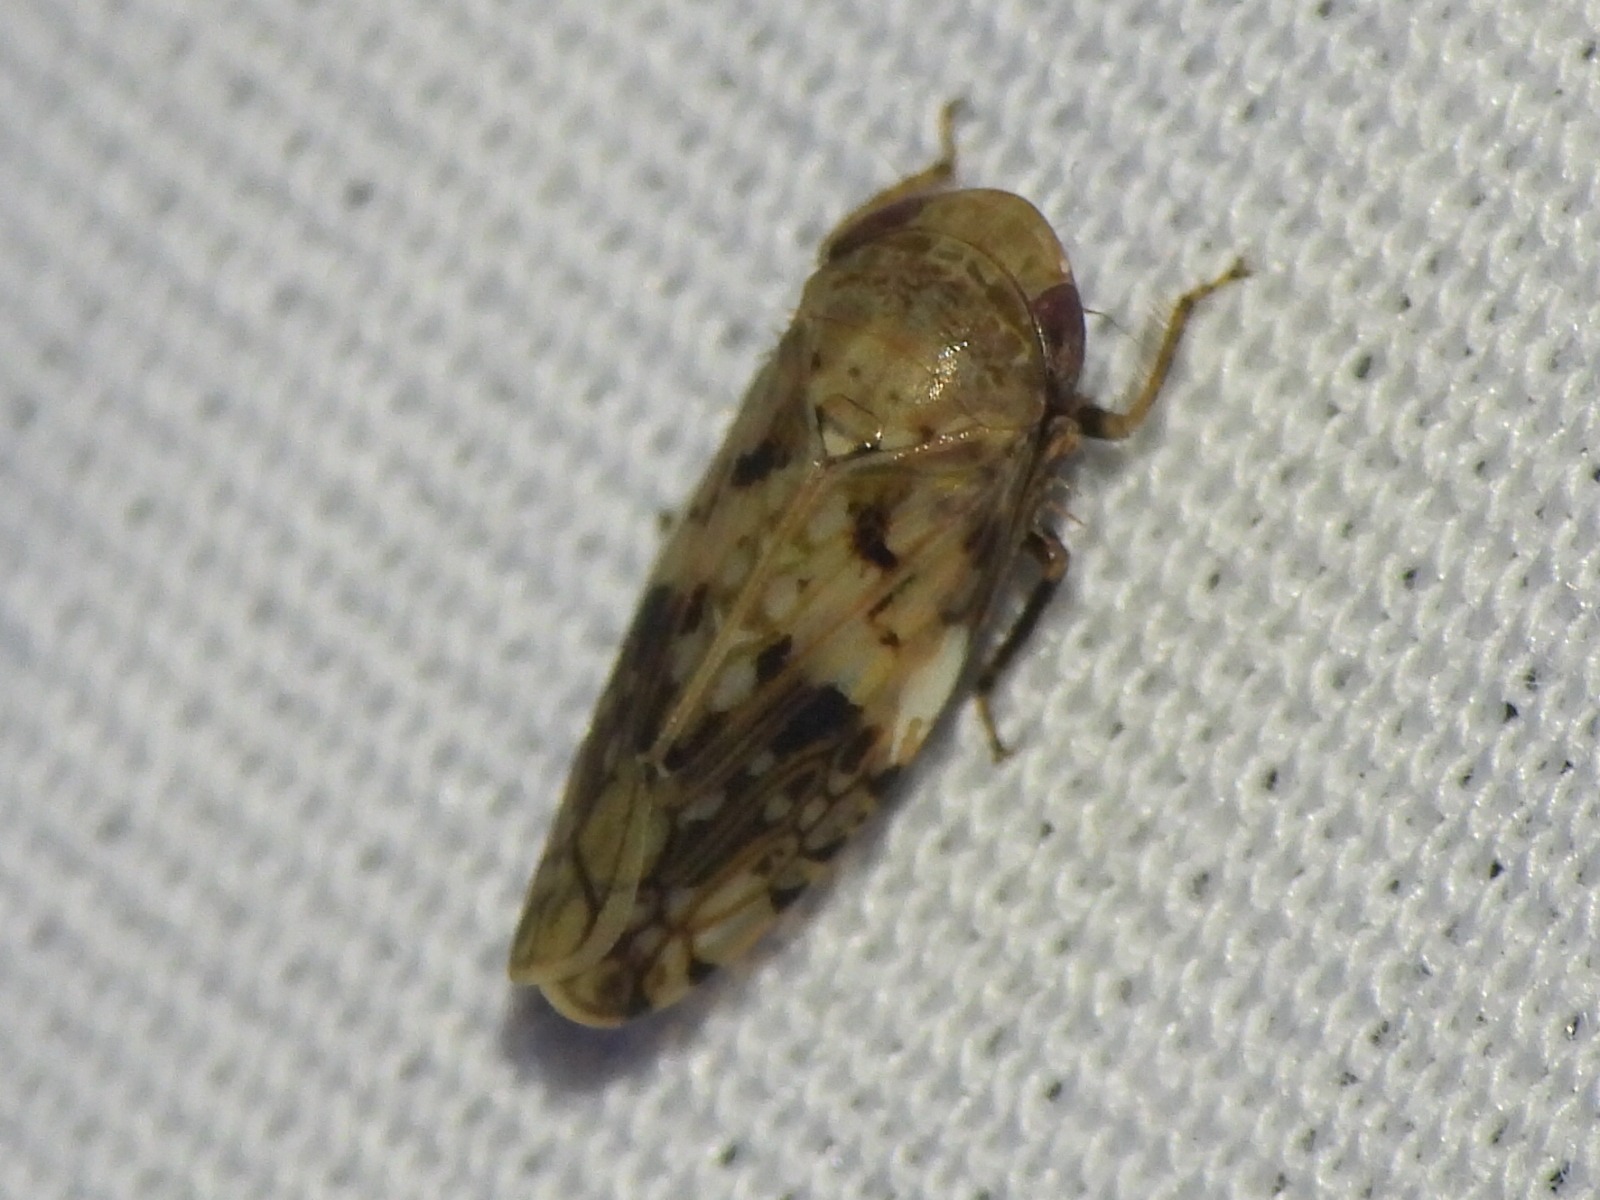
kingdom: Animalia
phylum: Arthropoda
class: Insecta
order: Hemiptera
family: Cicadellidae
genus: Menosoma
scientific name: Menosoma cinctum
